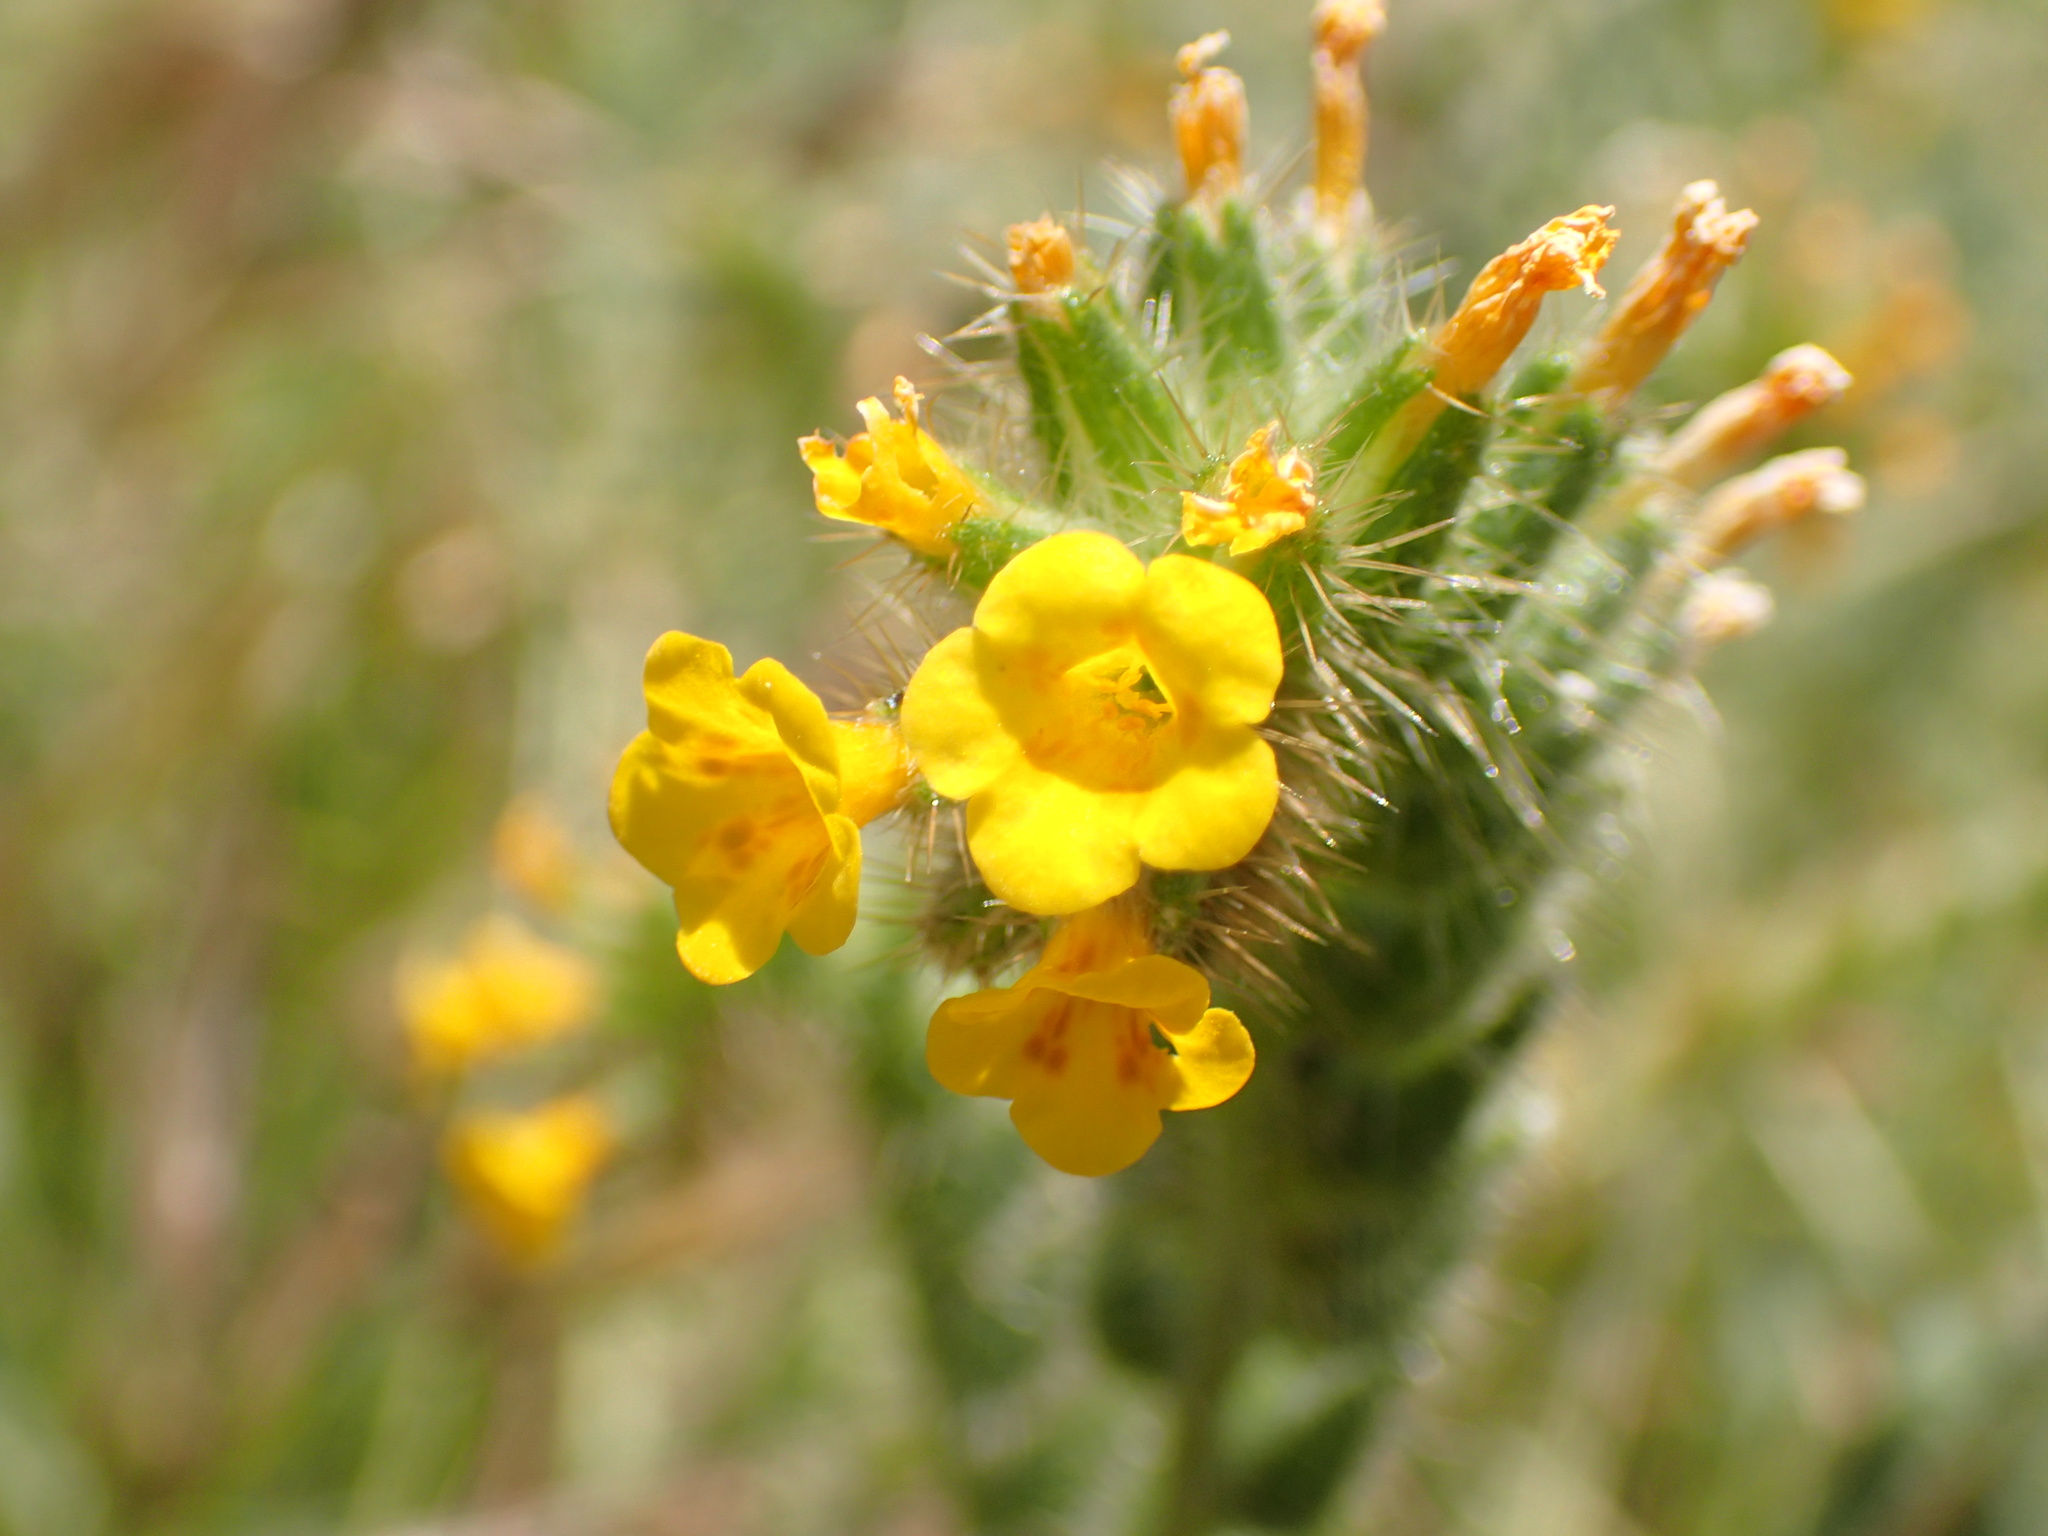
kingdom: Plantae
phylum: Tracheophyta
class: Magnoliopsida
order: Boraginales
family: Boraginaceae
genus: Amsinckia
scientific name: Amsinckia douglasiana
